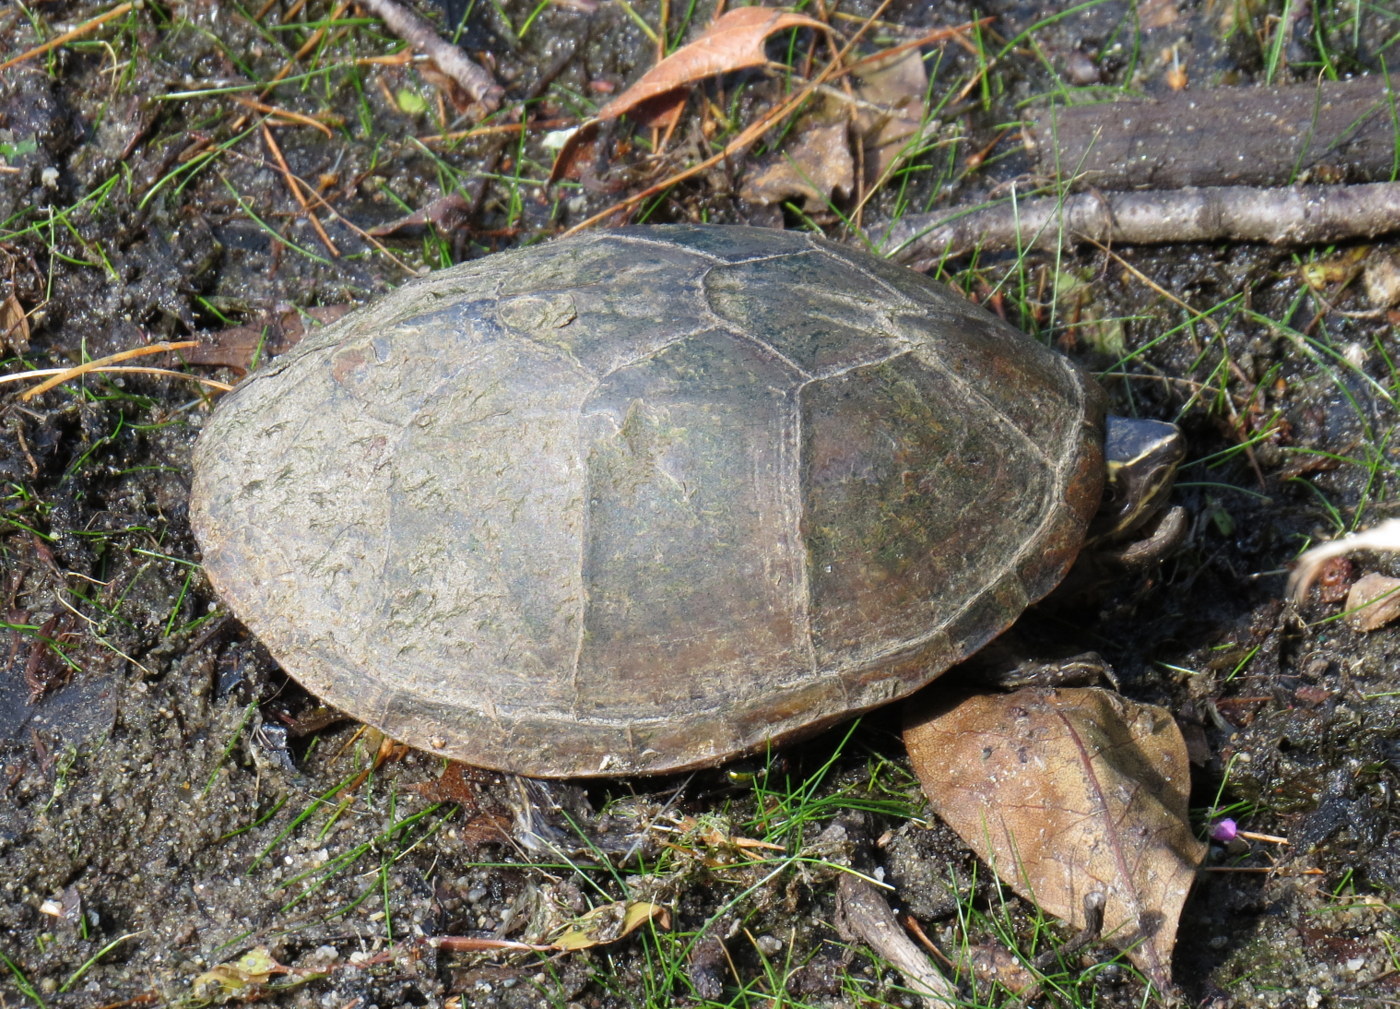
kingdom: Animalia
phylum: Chordata
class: Testudines
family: Kinosternidae
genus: Sternotherus
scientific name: Sternotherus odoratus
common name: Common musk turtle
